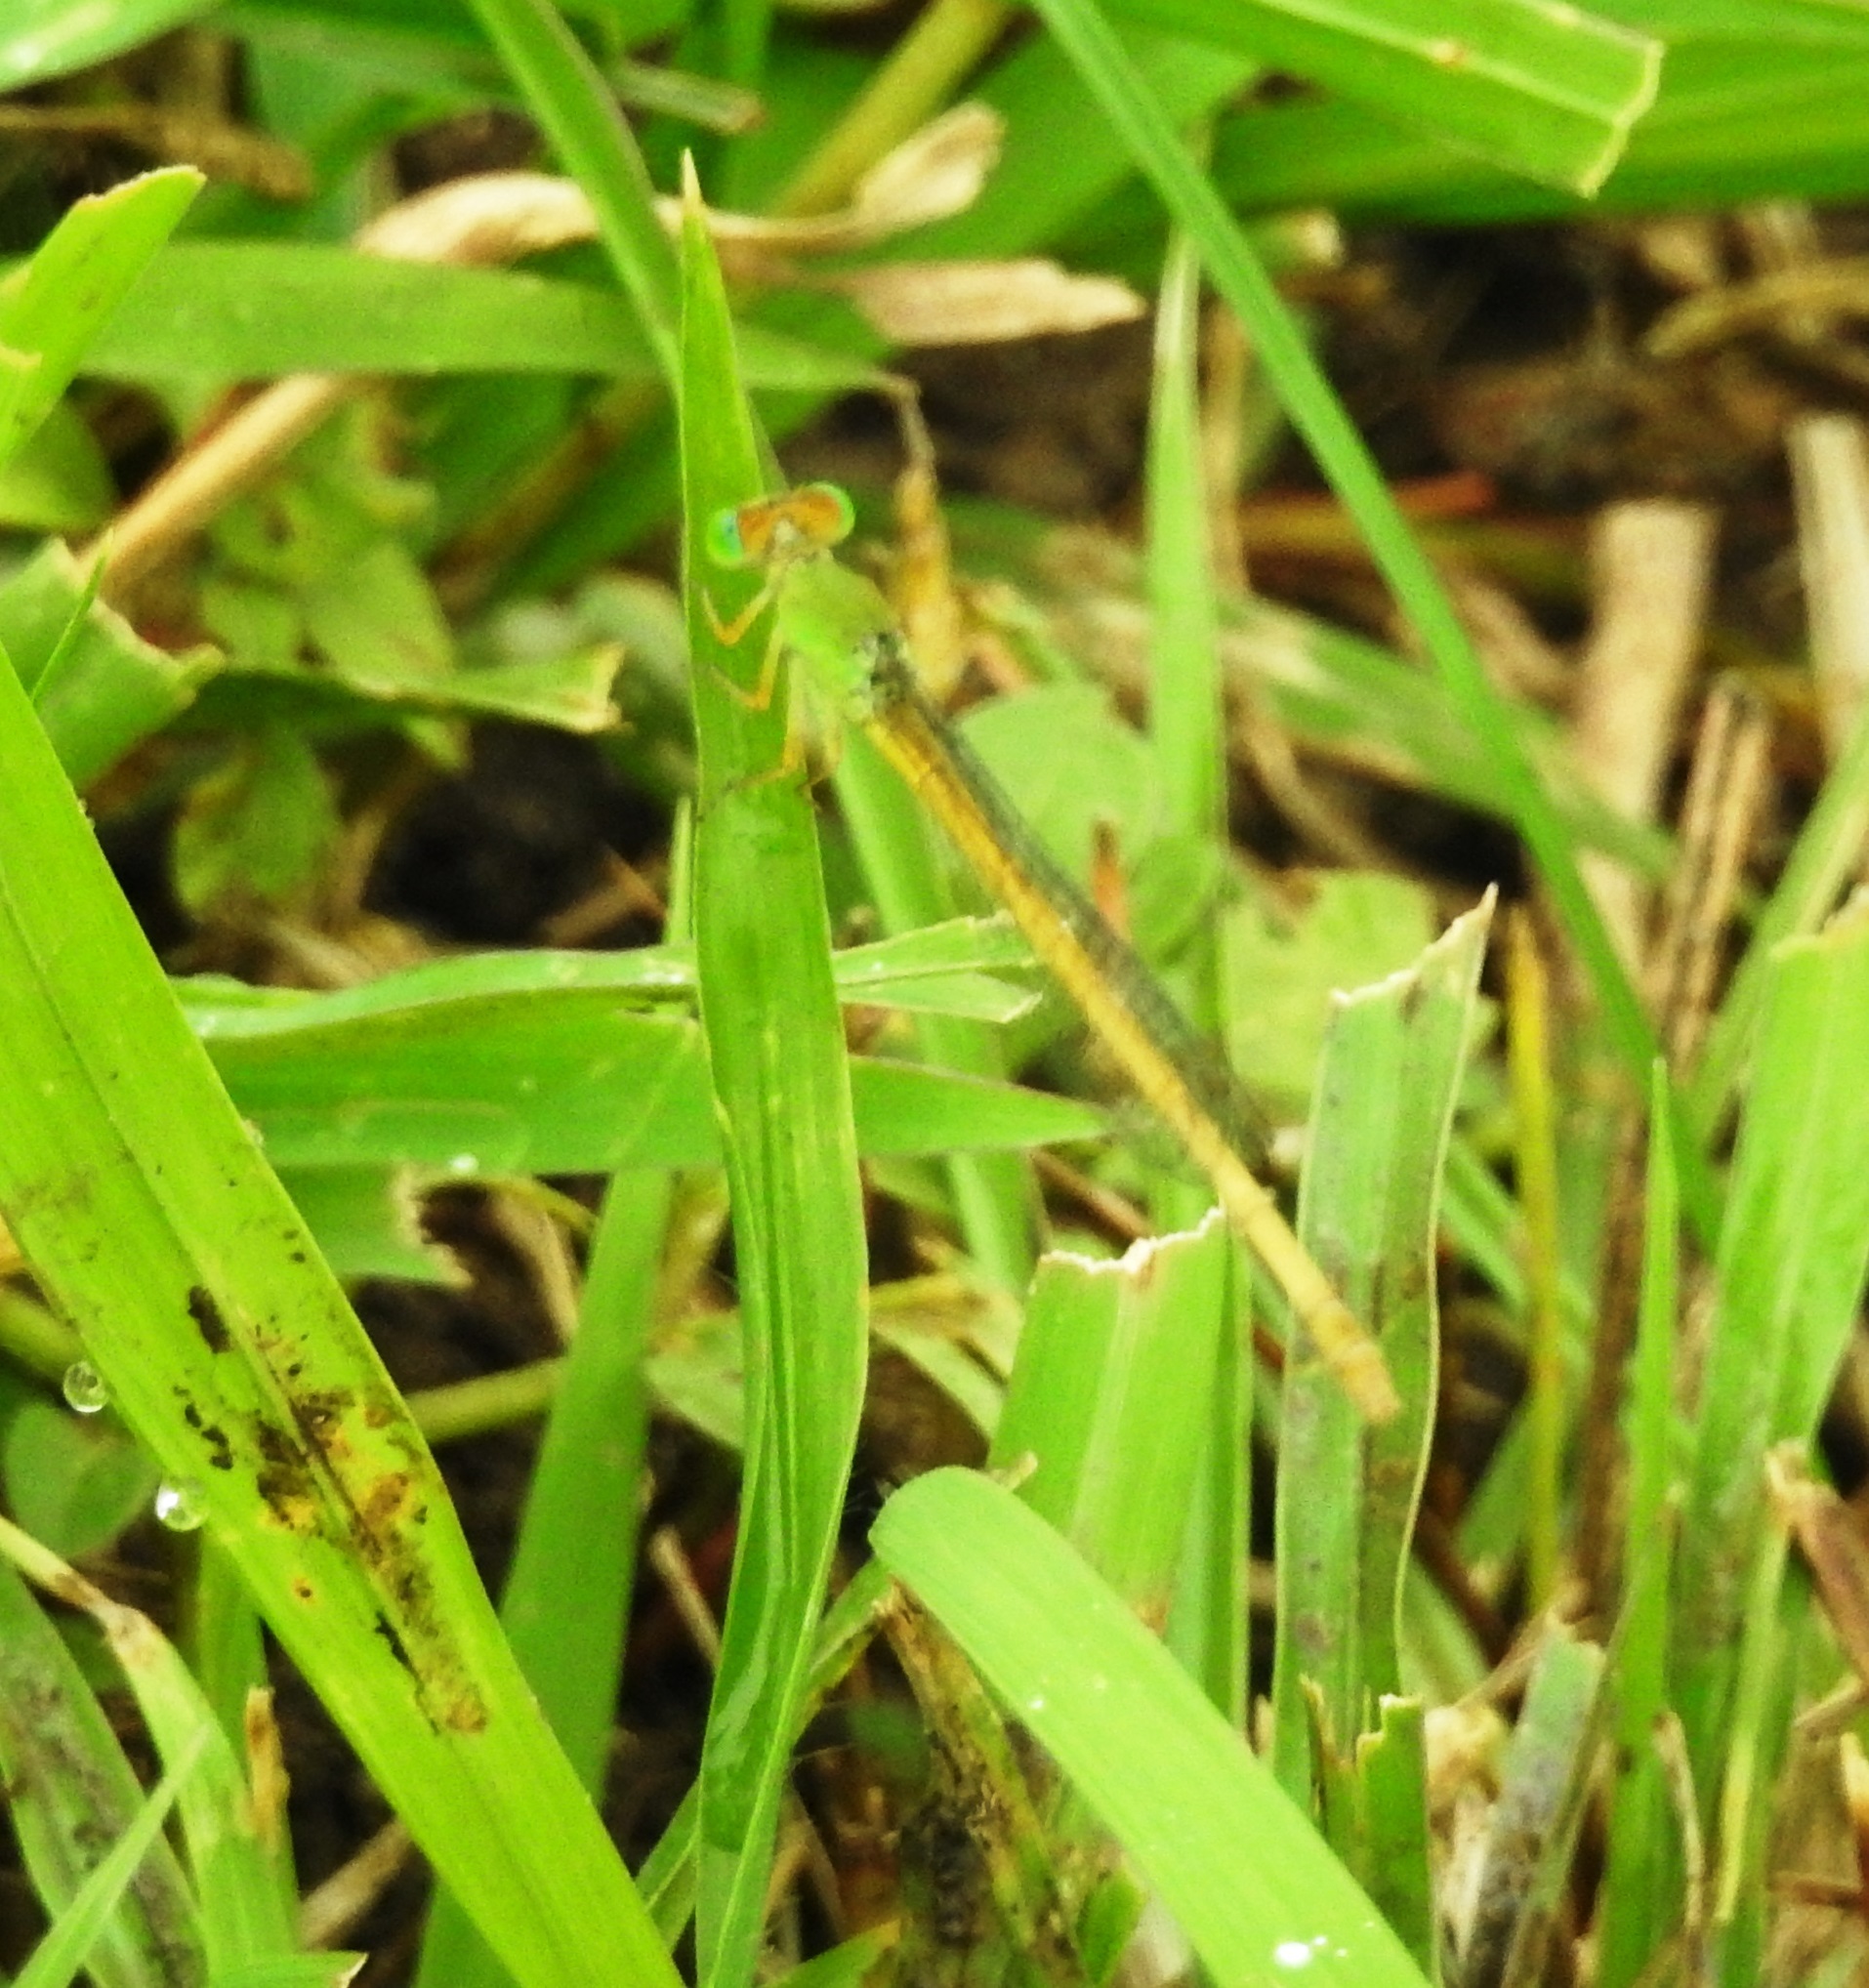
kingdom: Animalia
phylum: Arthropoda
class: Insecta
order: Odonata
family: Coenagrionidae
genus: Ceriagrion
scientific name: Ceriagrion coromandelianum
